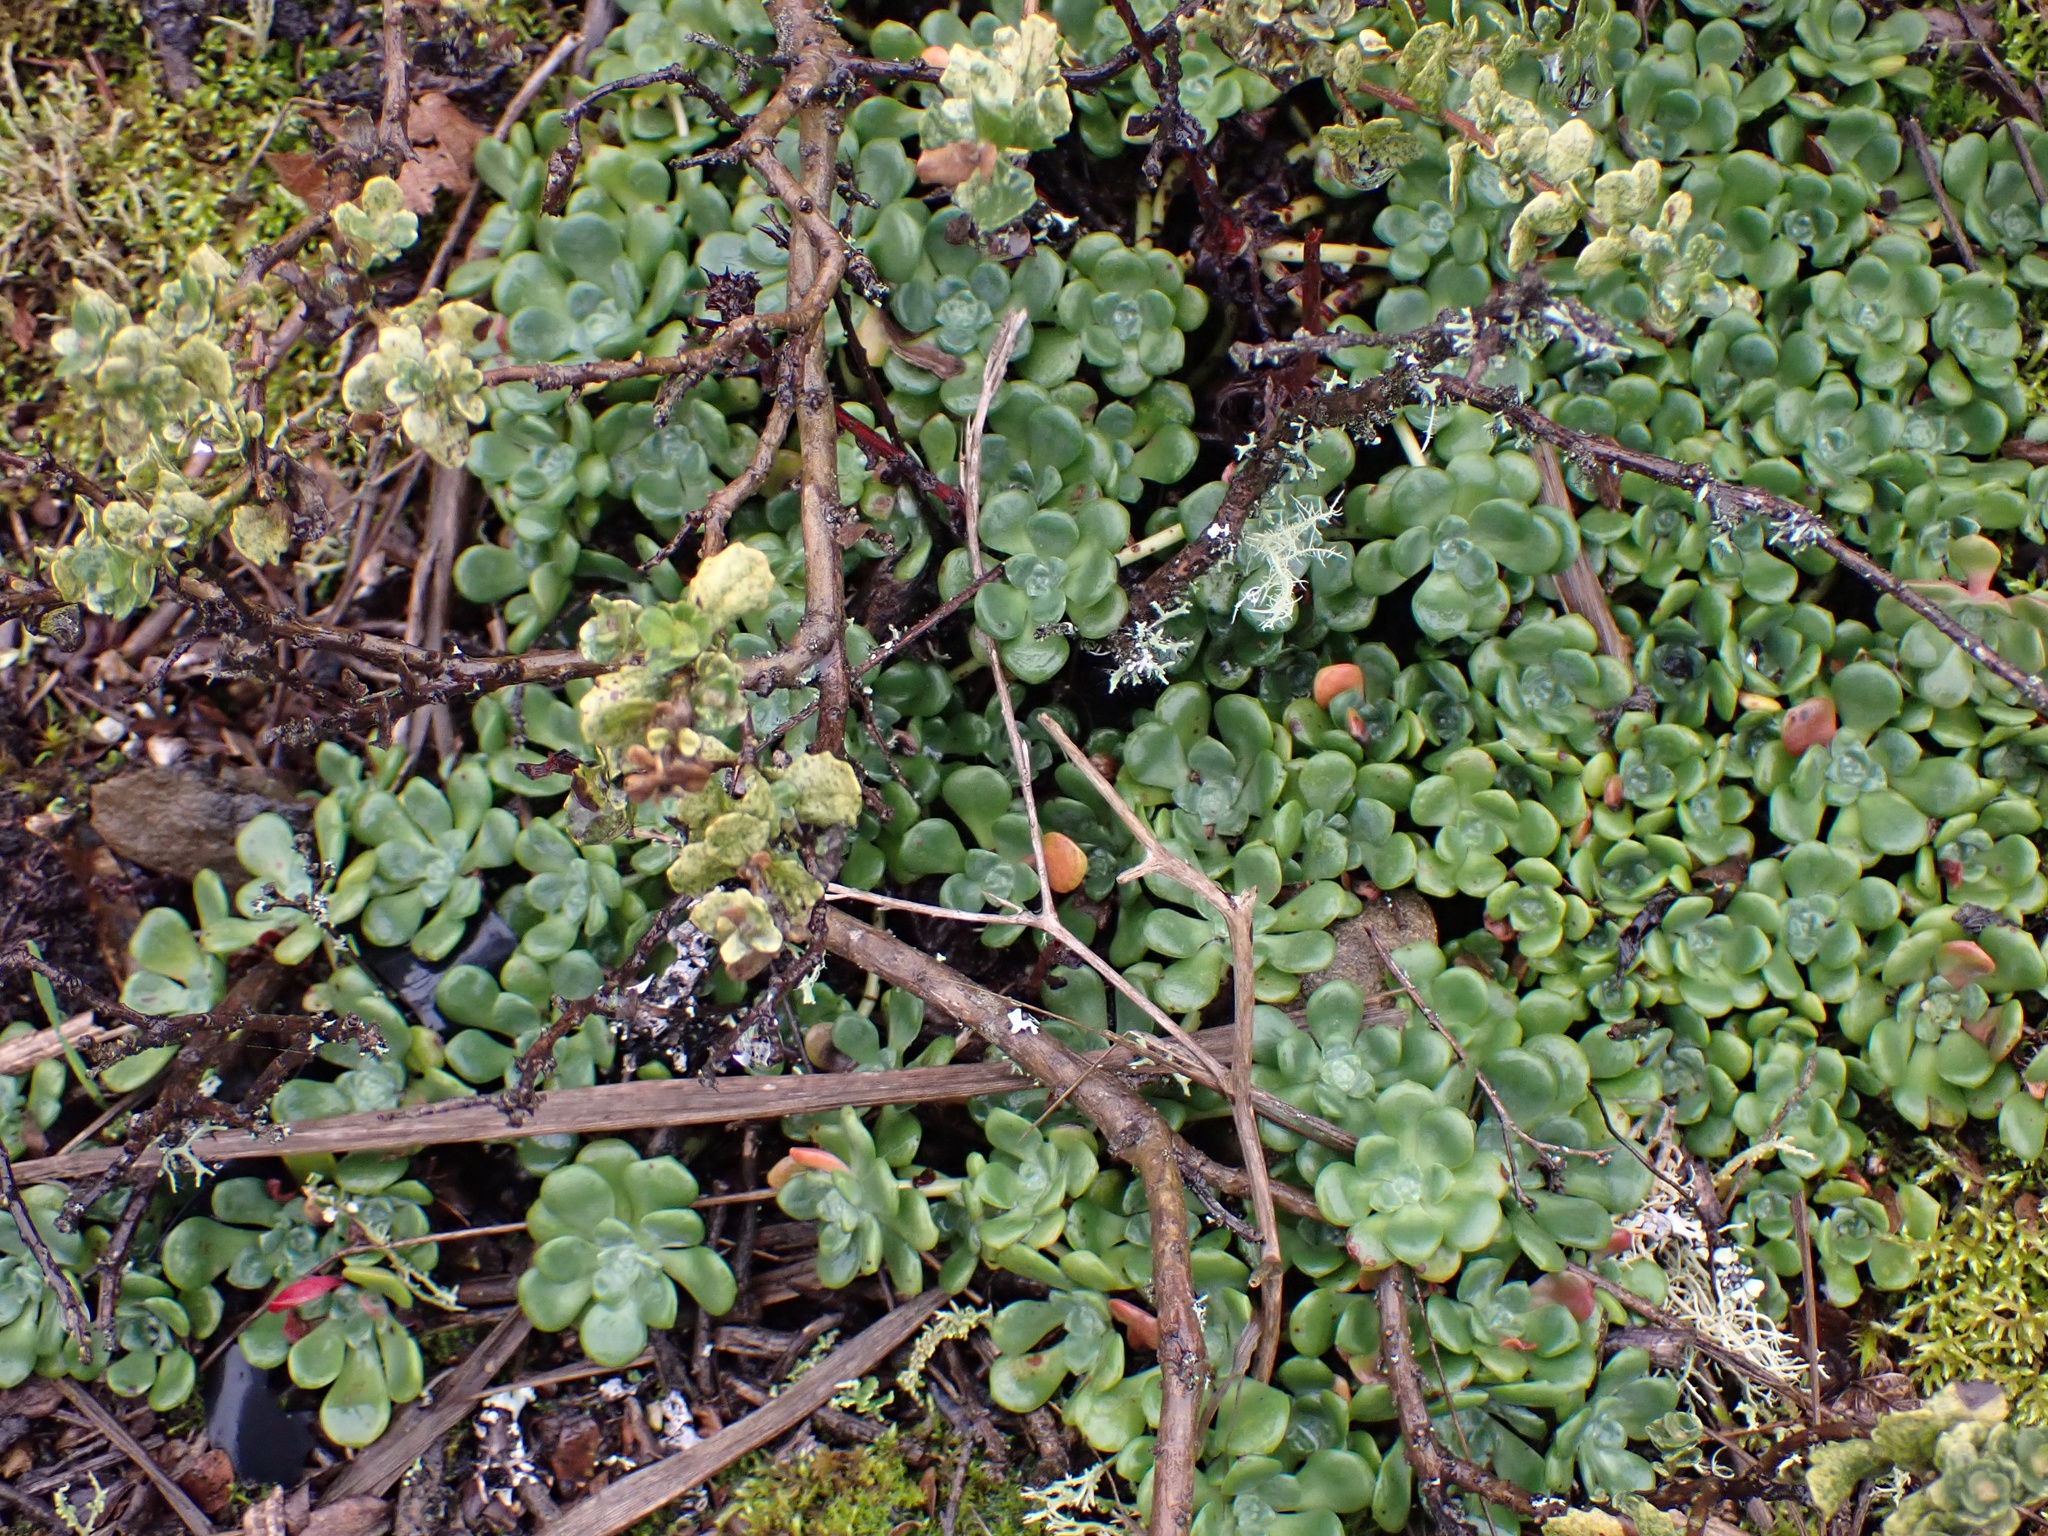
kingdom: Plantae
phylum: Tracheophyta
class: Magnoliopsida
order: Saxifragales
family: Crassulaceae
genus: Sedum
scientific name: Sedum spathulifolium
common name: Colorado stonecrop
